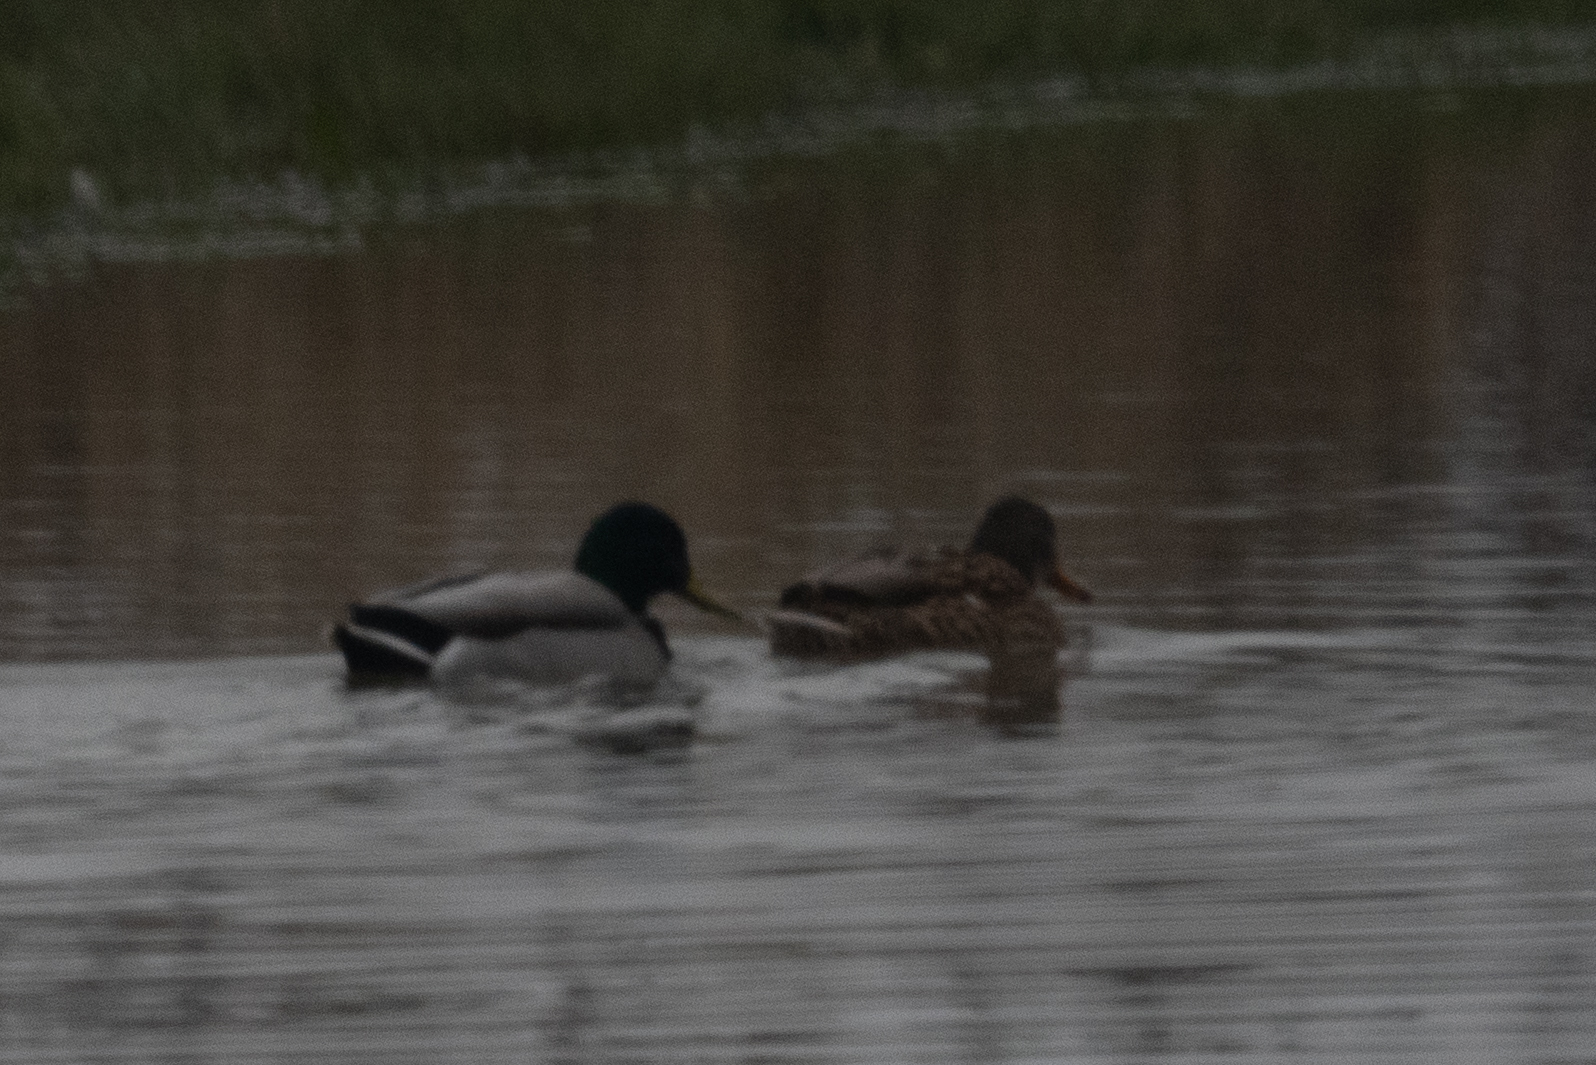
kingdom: Animalia
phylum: Chordata
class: Aves
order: Anseriformes
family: Anatidae
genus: Anas
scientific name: Anas platyrhynchos
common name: Mallard
